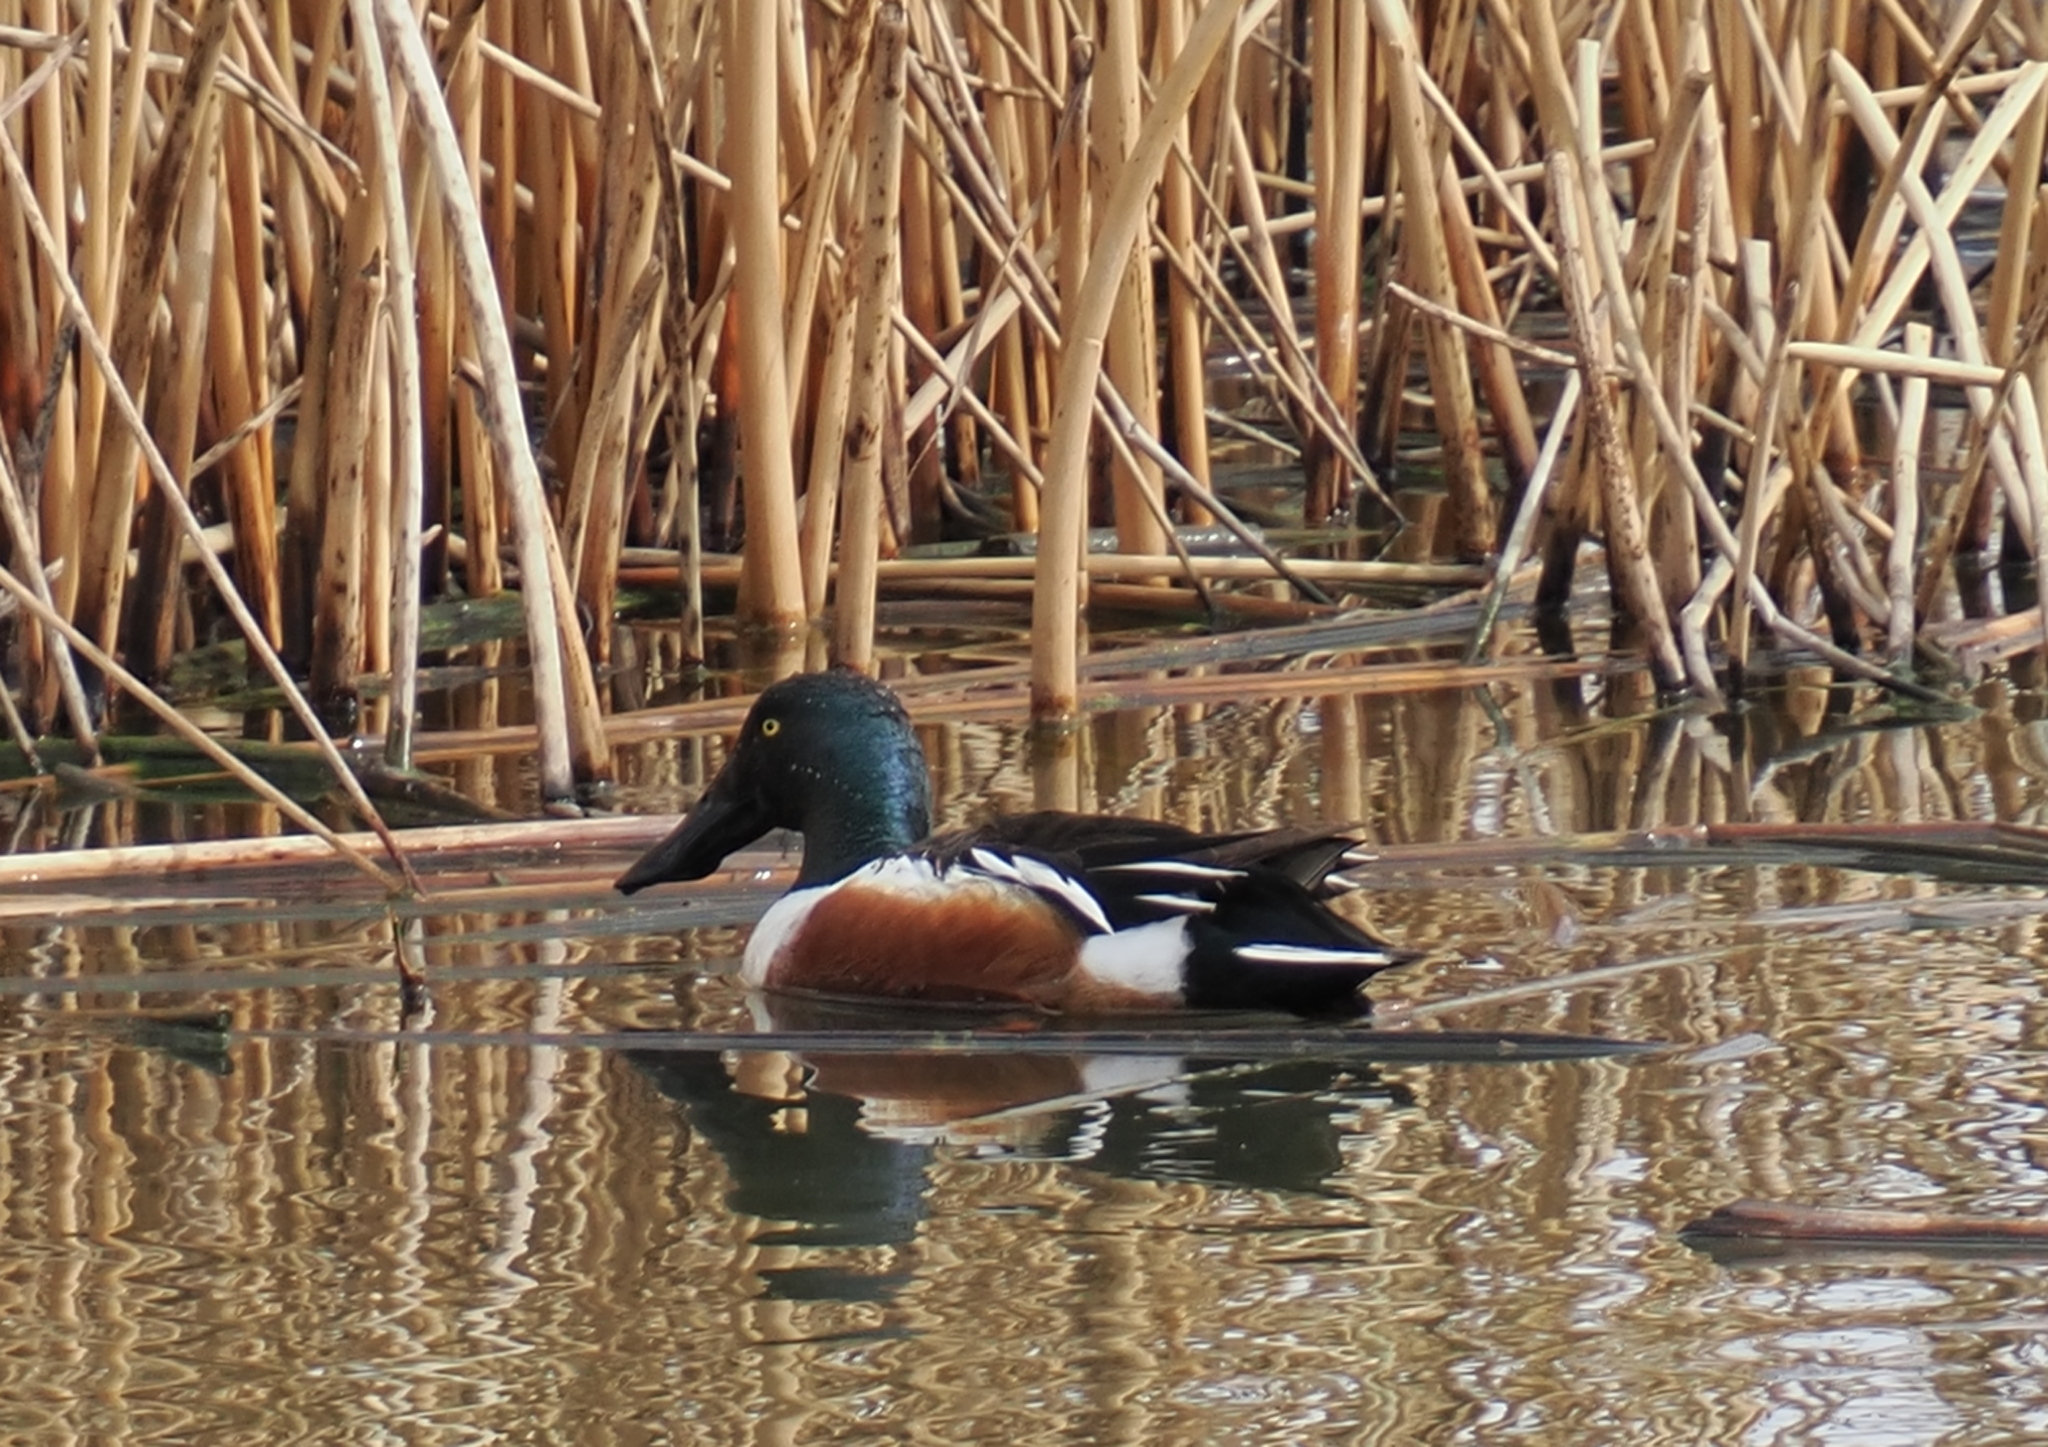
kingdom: Animalia
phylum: Chordata
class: Aves
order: Anseriformes
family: Anatidae
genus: Spatula
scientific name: Spatula clypeata
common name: Northern shoveler
